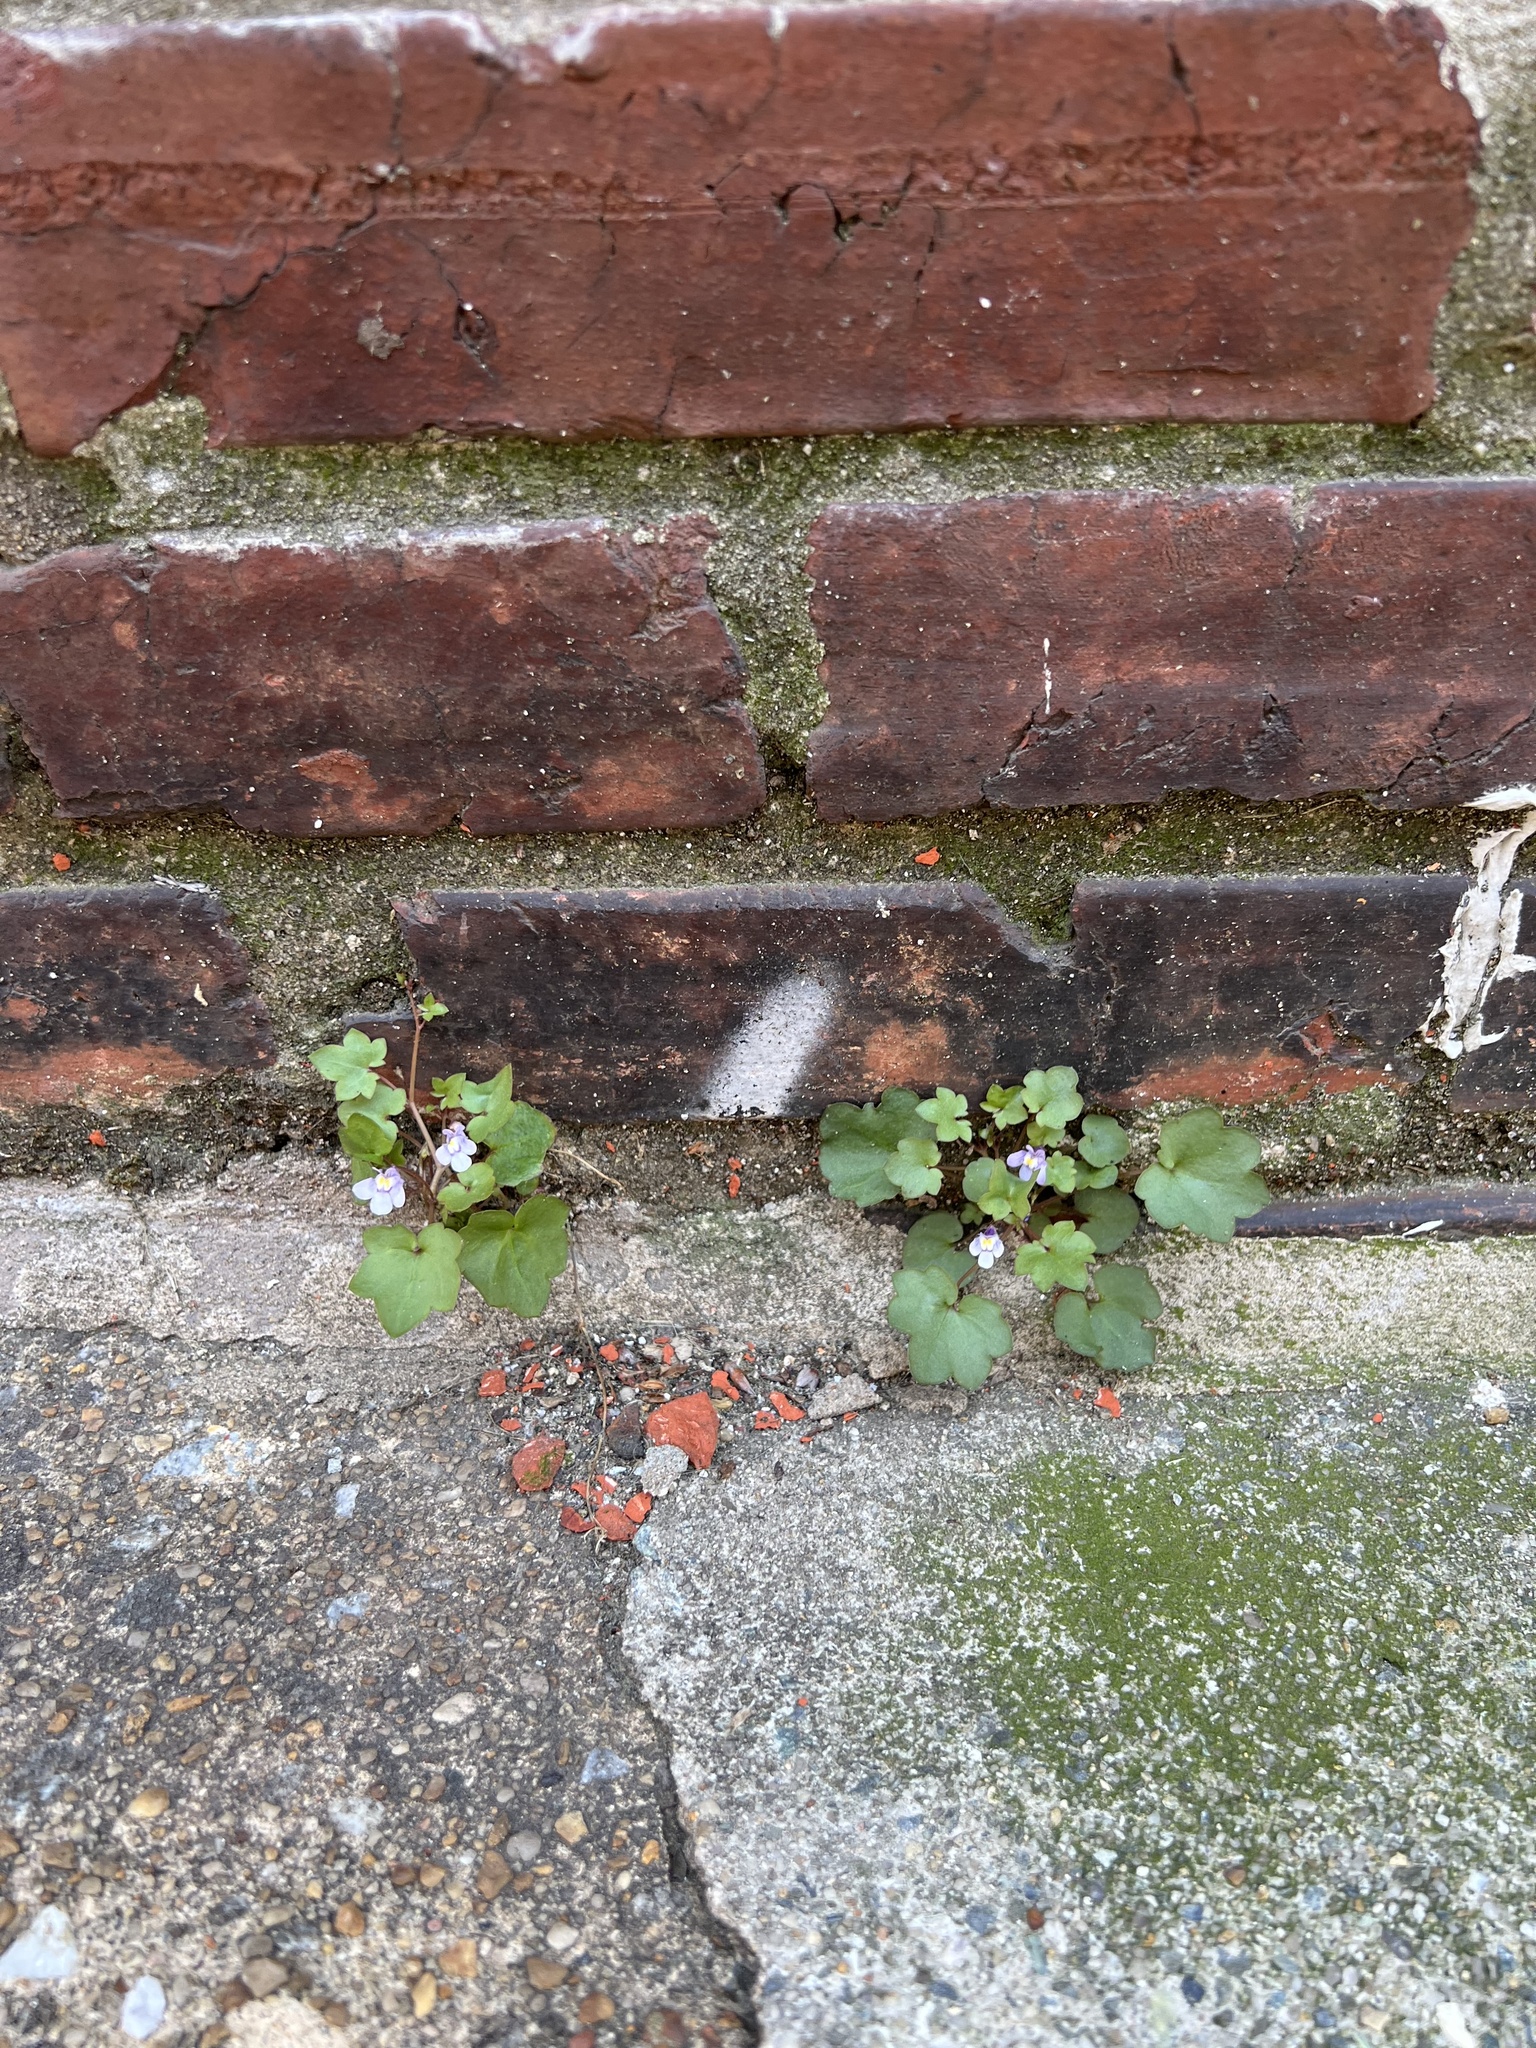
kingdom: Plantae
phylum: Tracheophyta
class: Magnoliopsida
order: Lamiales
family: Plantaginaceae
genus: Cymbalaria
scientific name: Cymbalaria muralis
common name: Ivy-leaved toadflax
